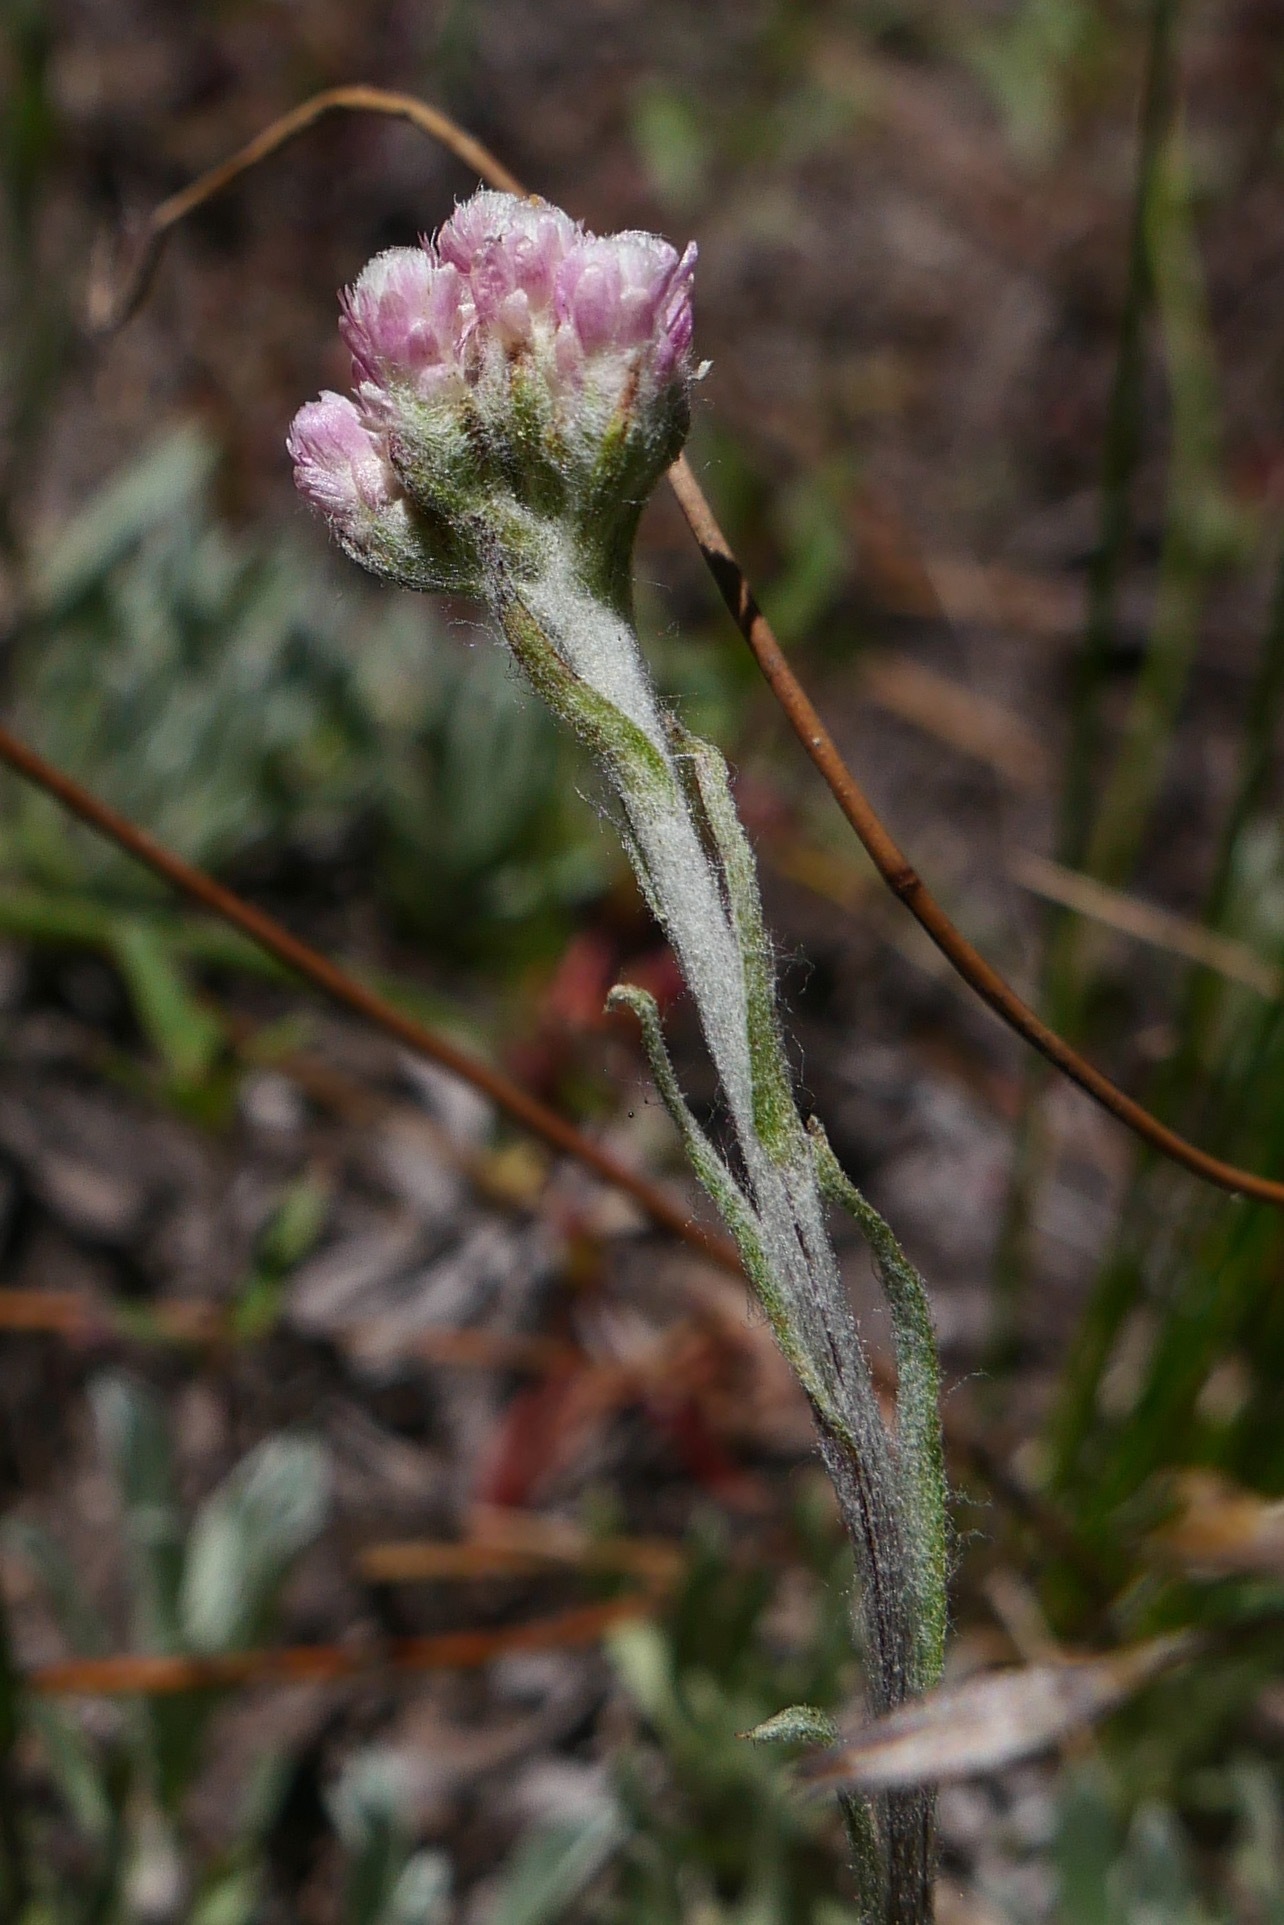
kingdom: Plantae
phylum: Tracheophyta
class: Magnoliopsida
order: Asterales
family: Asteraceae
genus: Antennaria
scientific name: Antennaria rosea
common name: Rosy pussytoes
